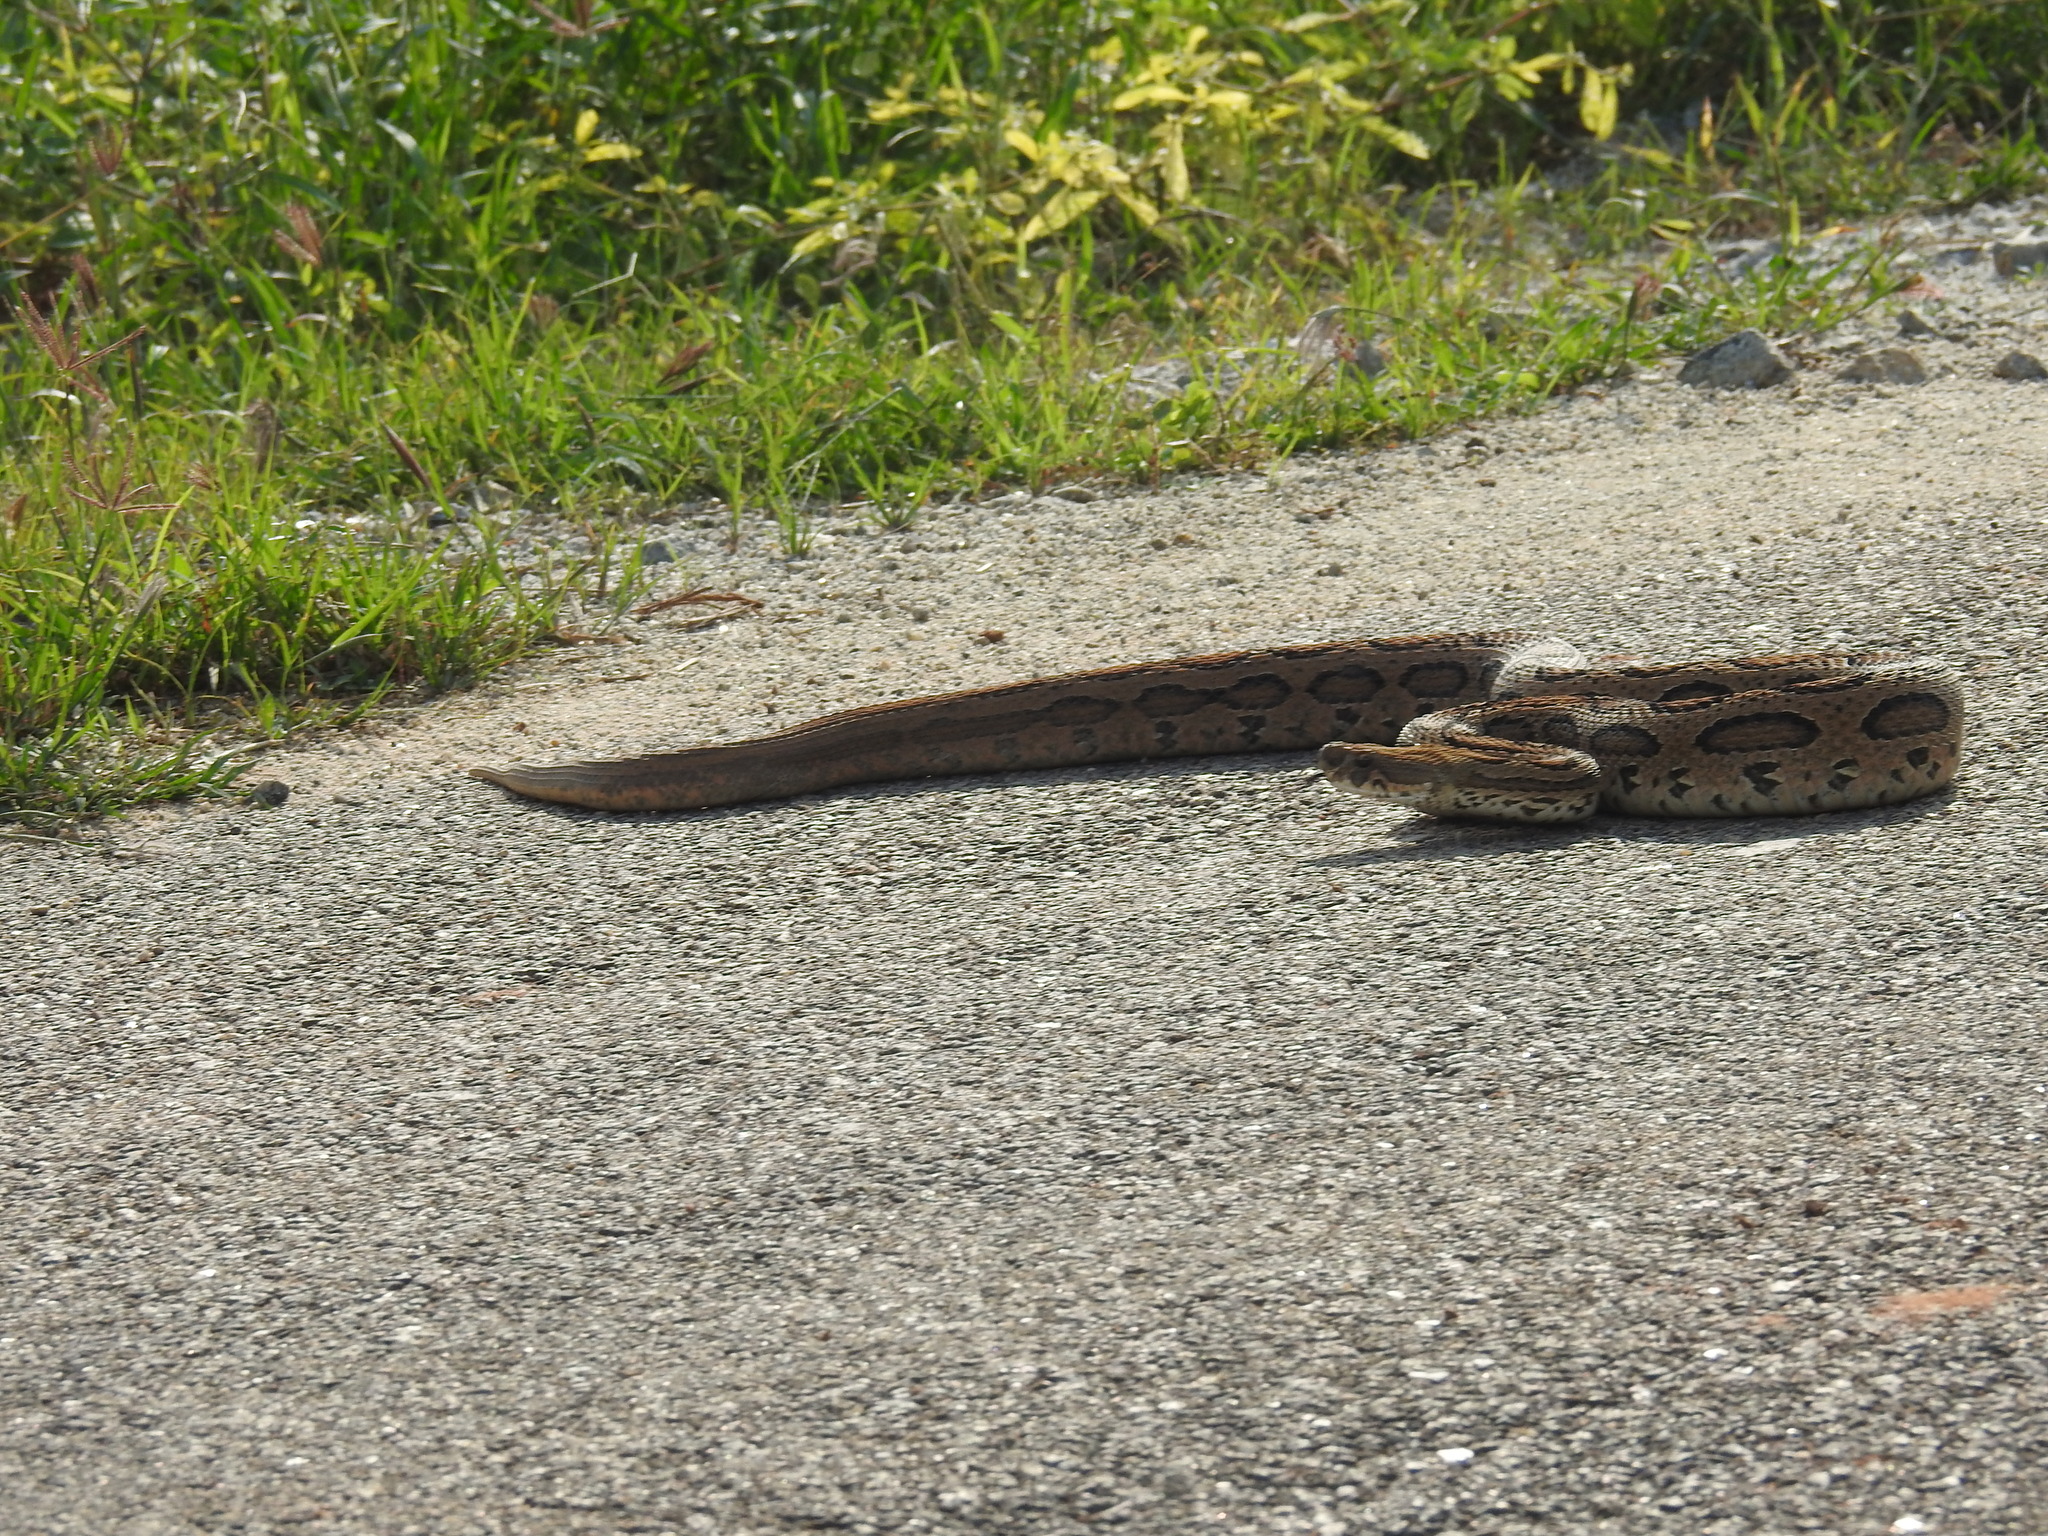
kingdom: Animalia
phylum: Chordata
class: Squamata
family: Viperidae
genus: Daboia
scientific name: Daboia russelii
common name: Western russel’s viper
